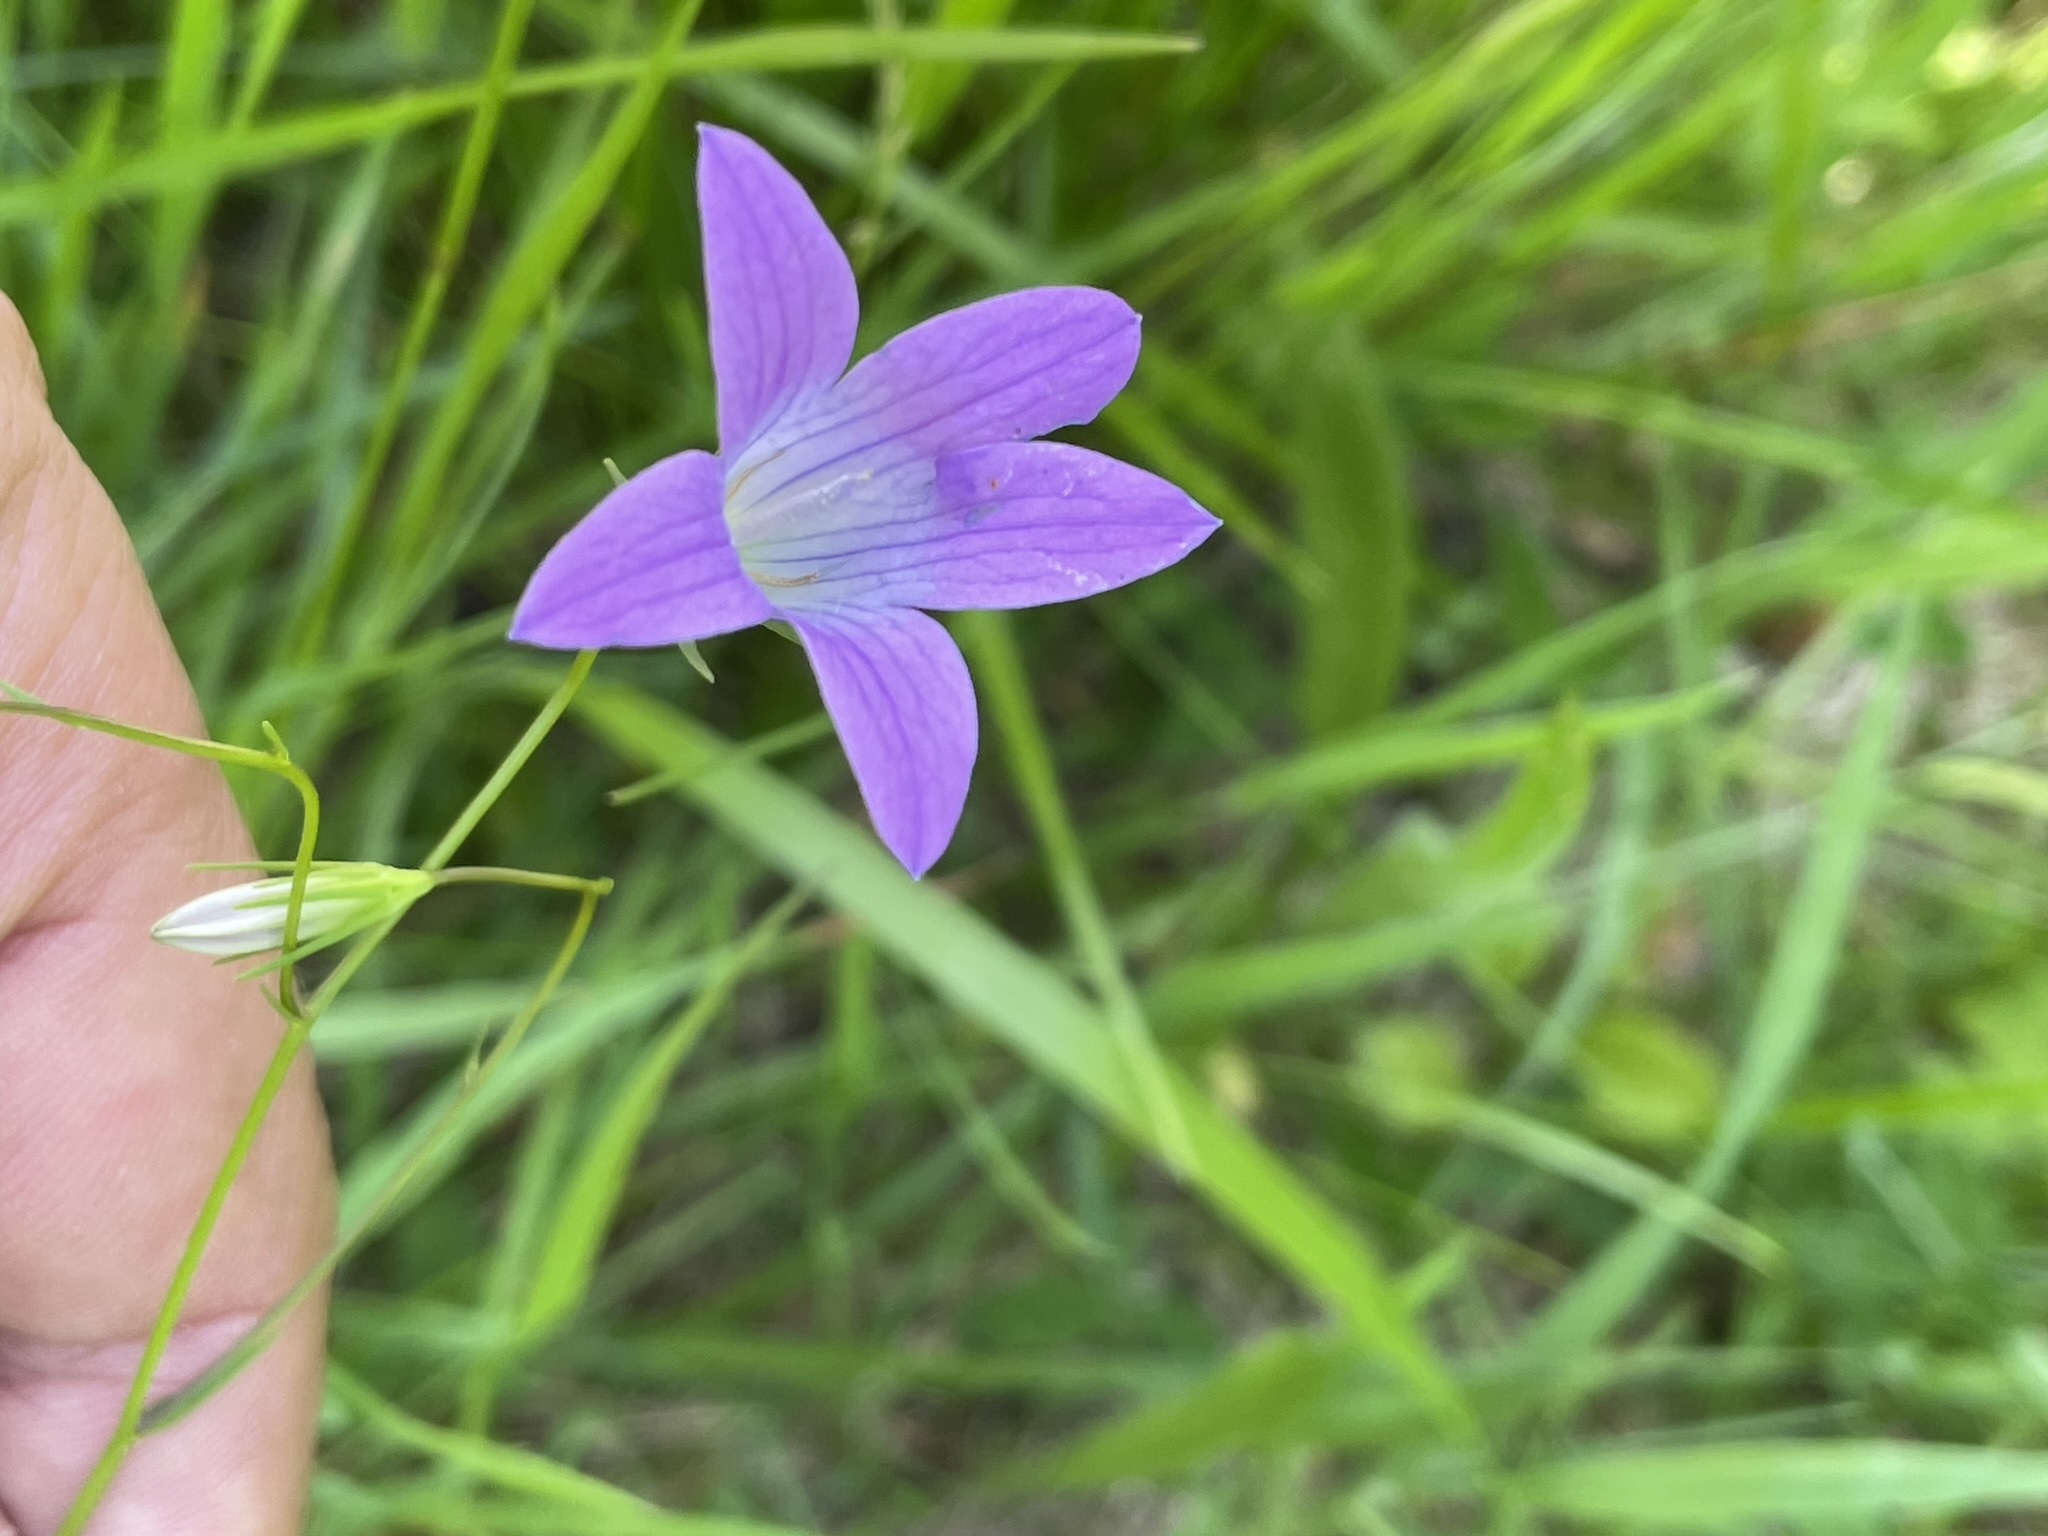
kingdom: Plantae
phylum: Tracheophyta
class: Magnoliopsida
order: Asterales
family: Campanulaceae
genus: Campanula
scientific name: Campanula patula
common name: Spreading bellflower
